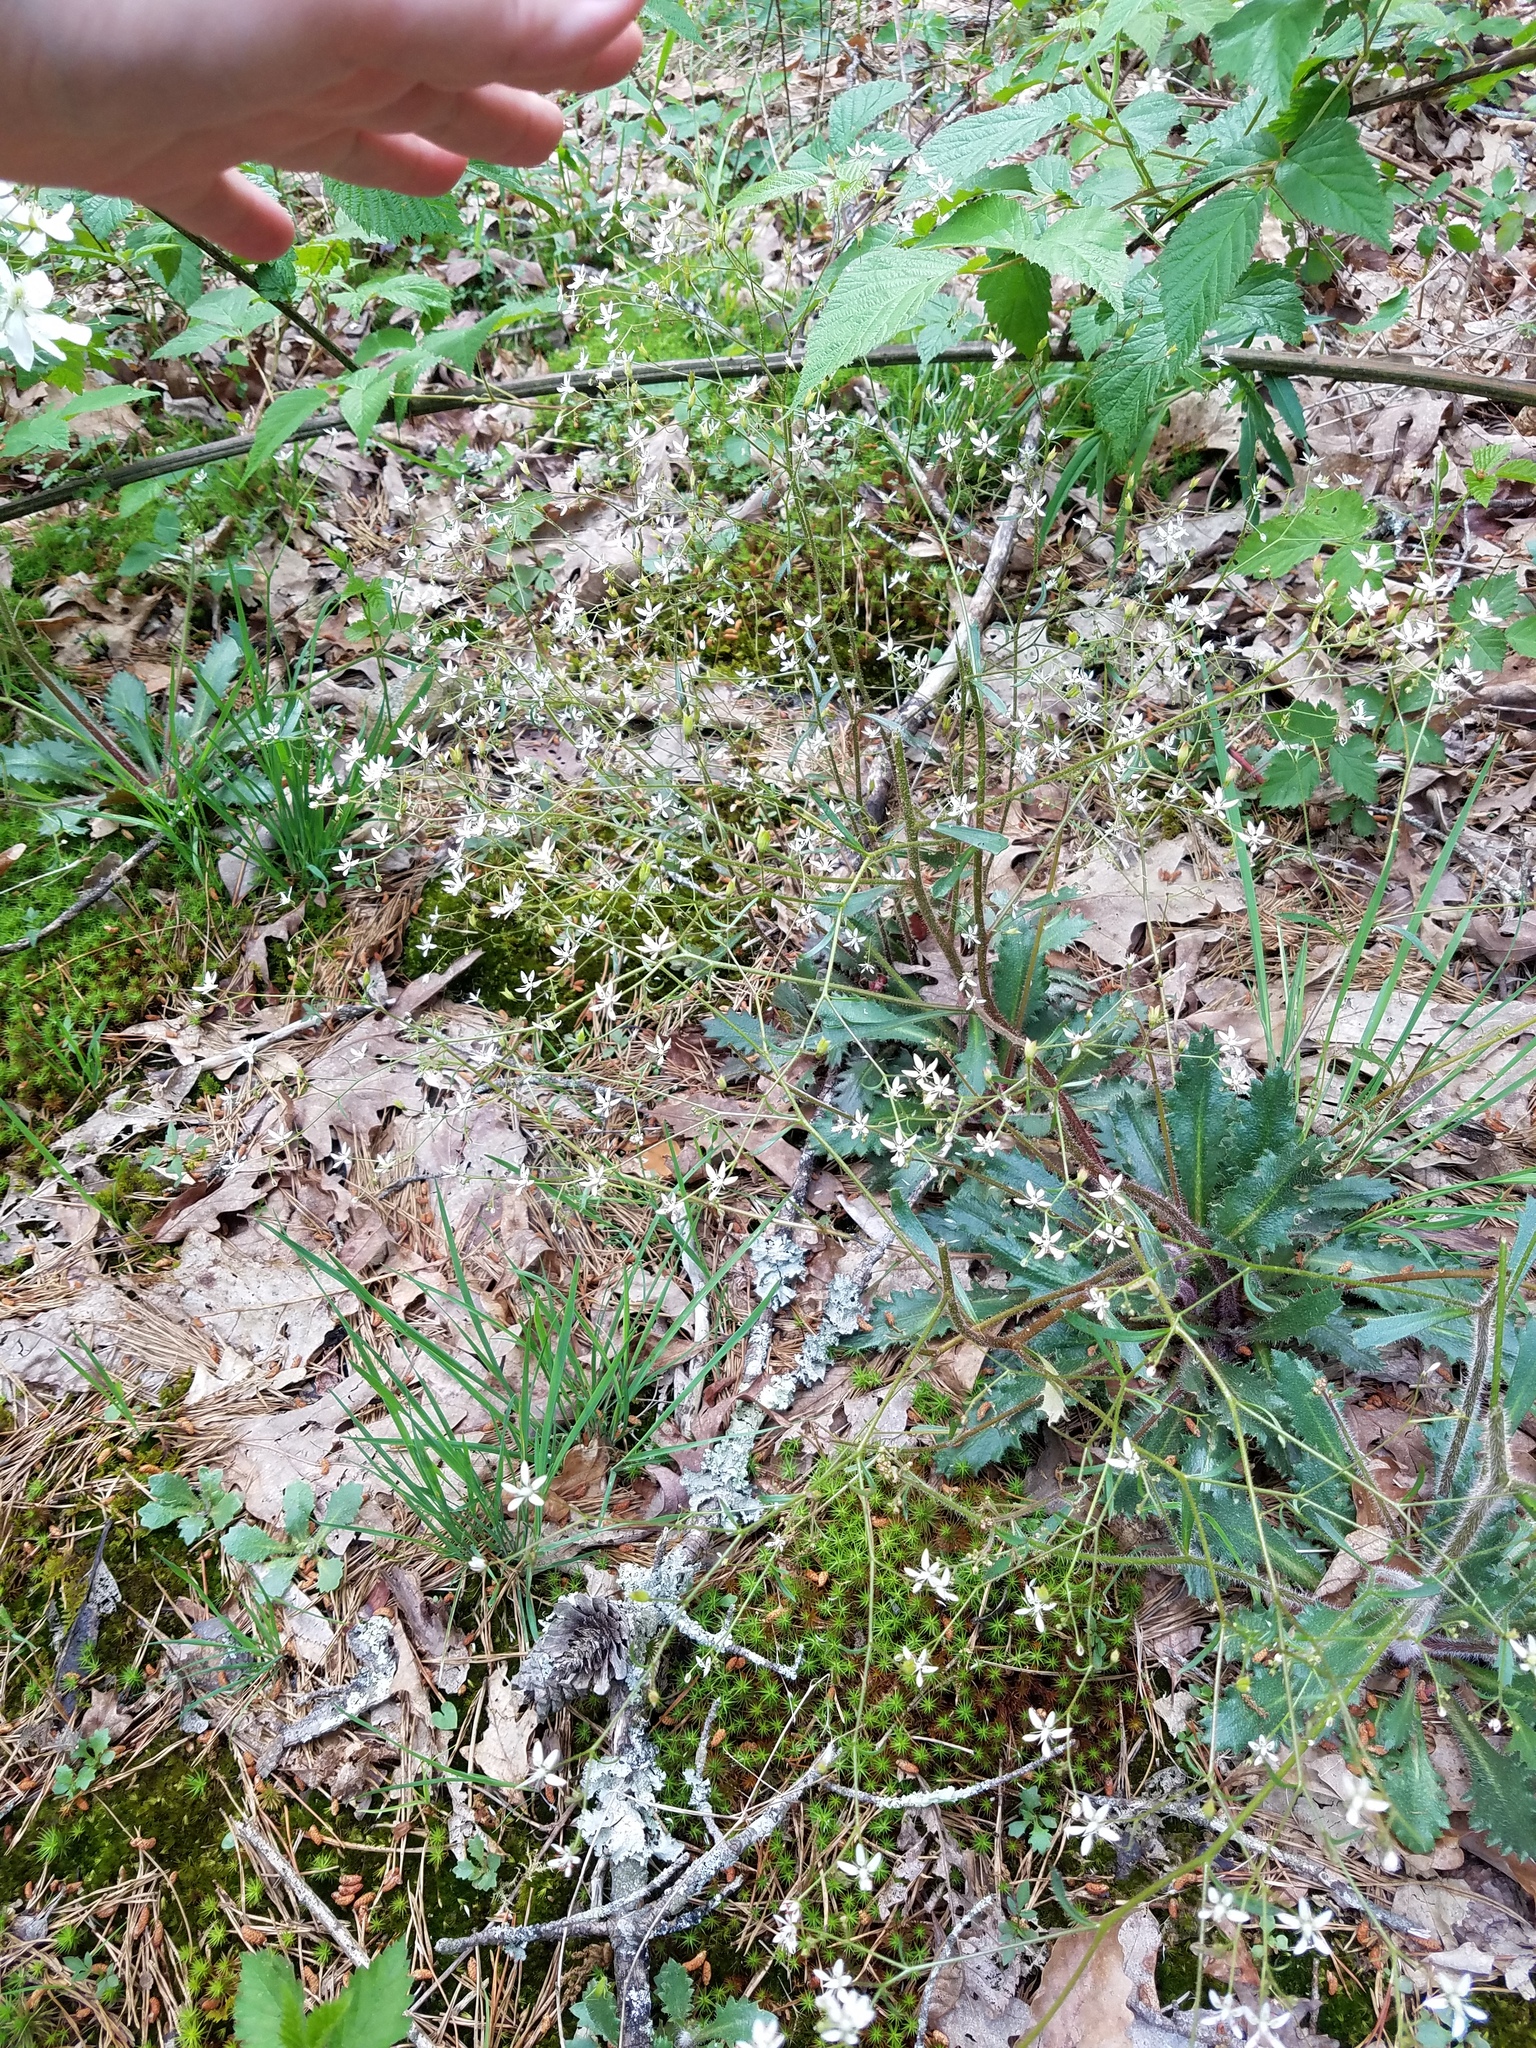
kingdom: Plantae
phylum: Tracheophyta
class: Magnoliopsida
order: Saxifragales
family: Saxifragaceae
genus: Micranthes
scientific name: Micranthes petiolaris
